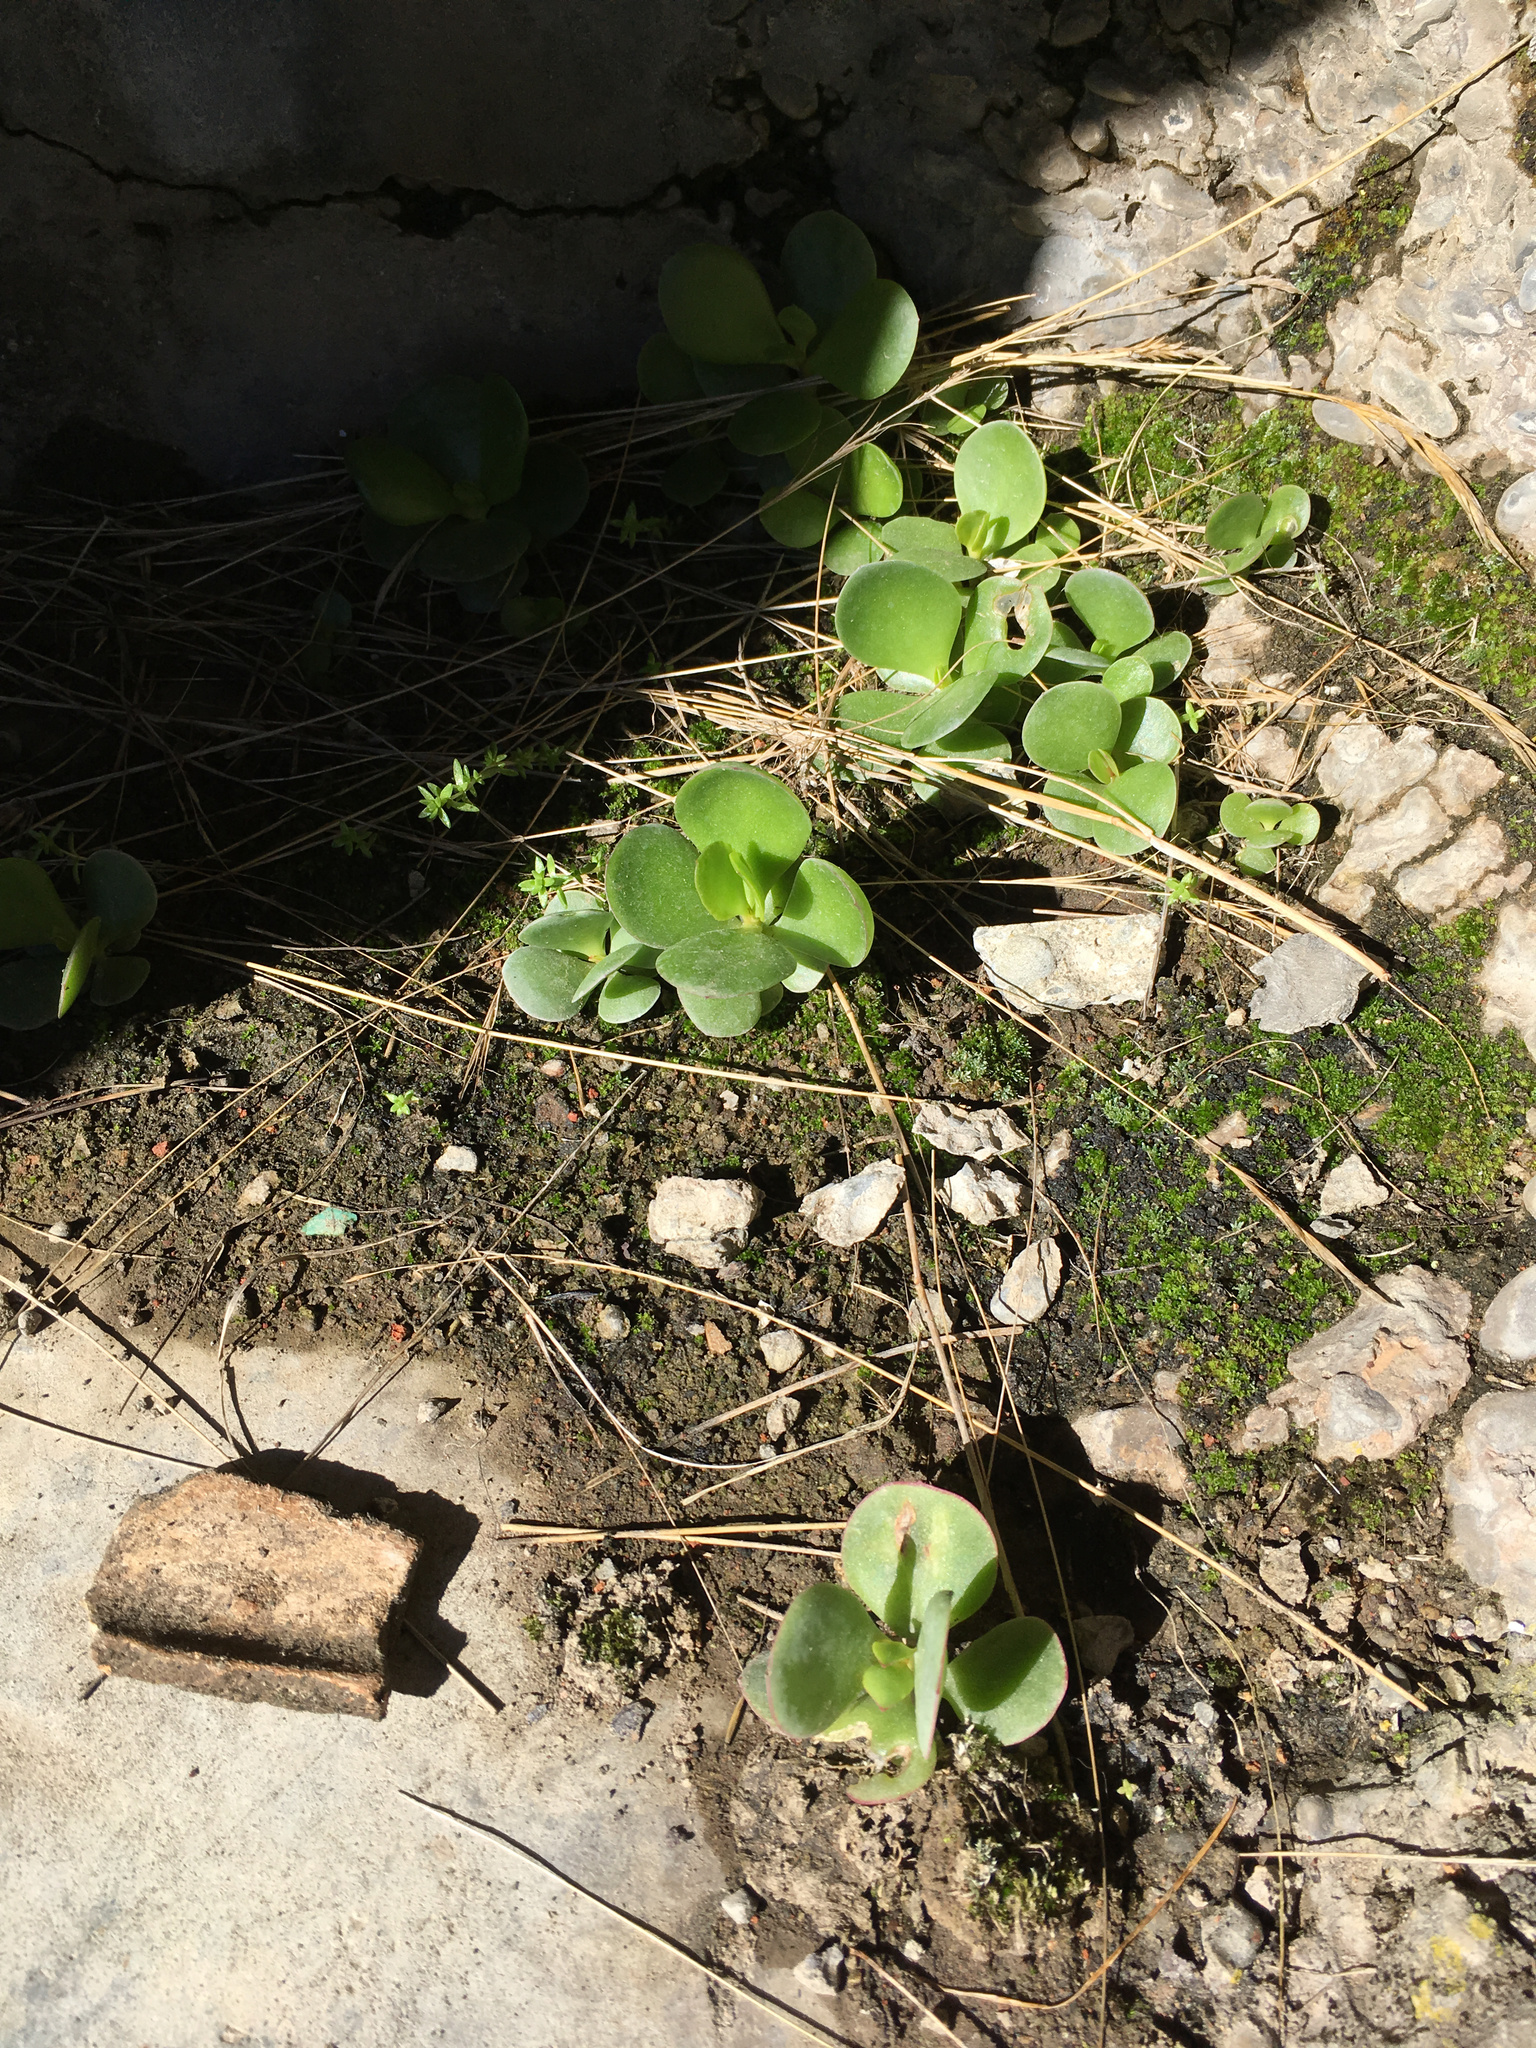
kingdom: Plantae
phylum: Tracheophyta
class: Magnoliopsida
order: Saxifragales
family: Crassulaceae
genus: Cotyledon
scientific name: Cotyledon orbiculata
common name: Pig's ear
